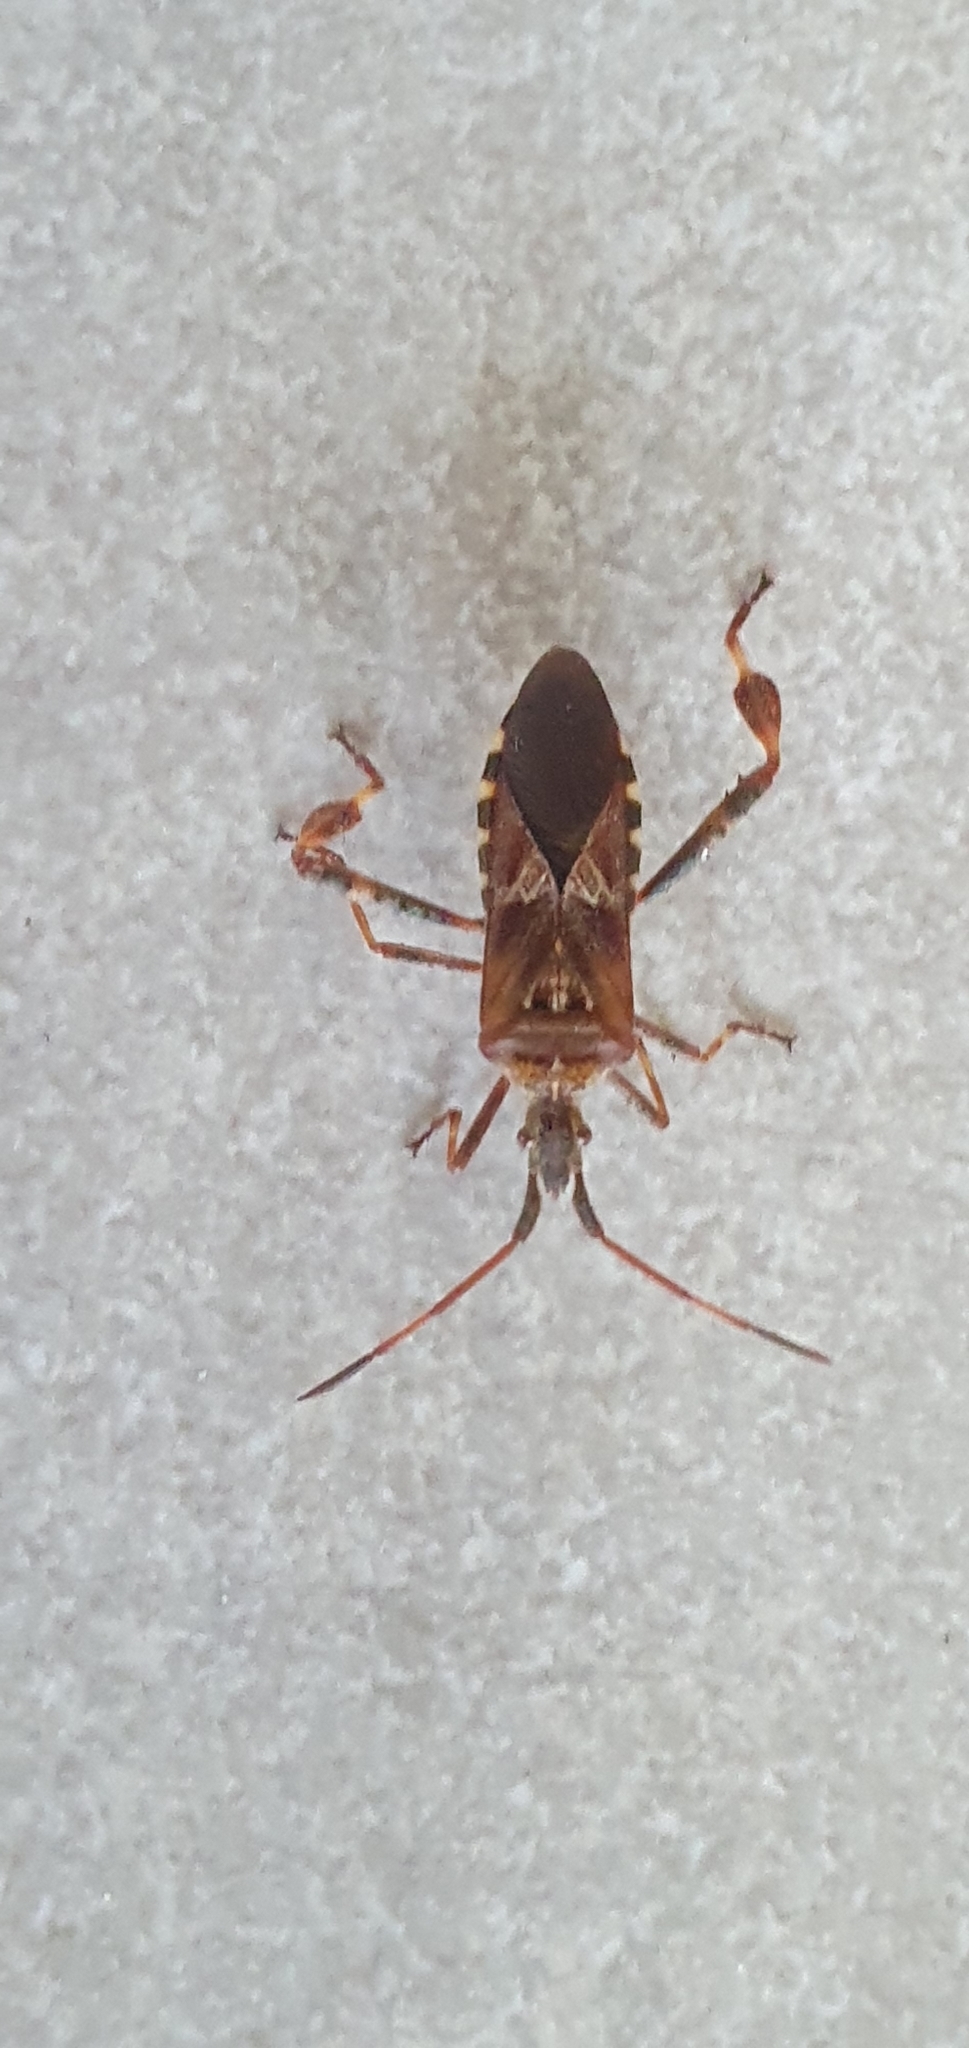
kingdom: Animalia
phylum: Arthropoda
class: Insecta
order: Hemiptera
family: Coreidae
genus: Leptoglossus
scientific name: Leptoglossus occidentalis
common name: Western conifer-seed bug
